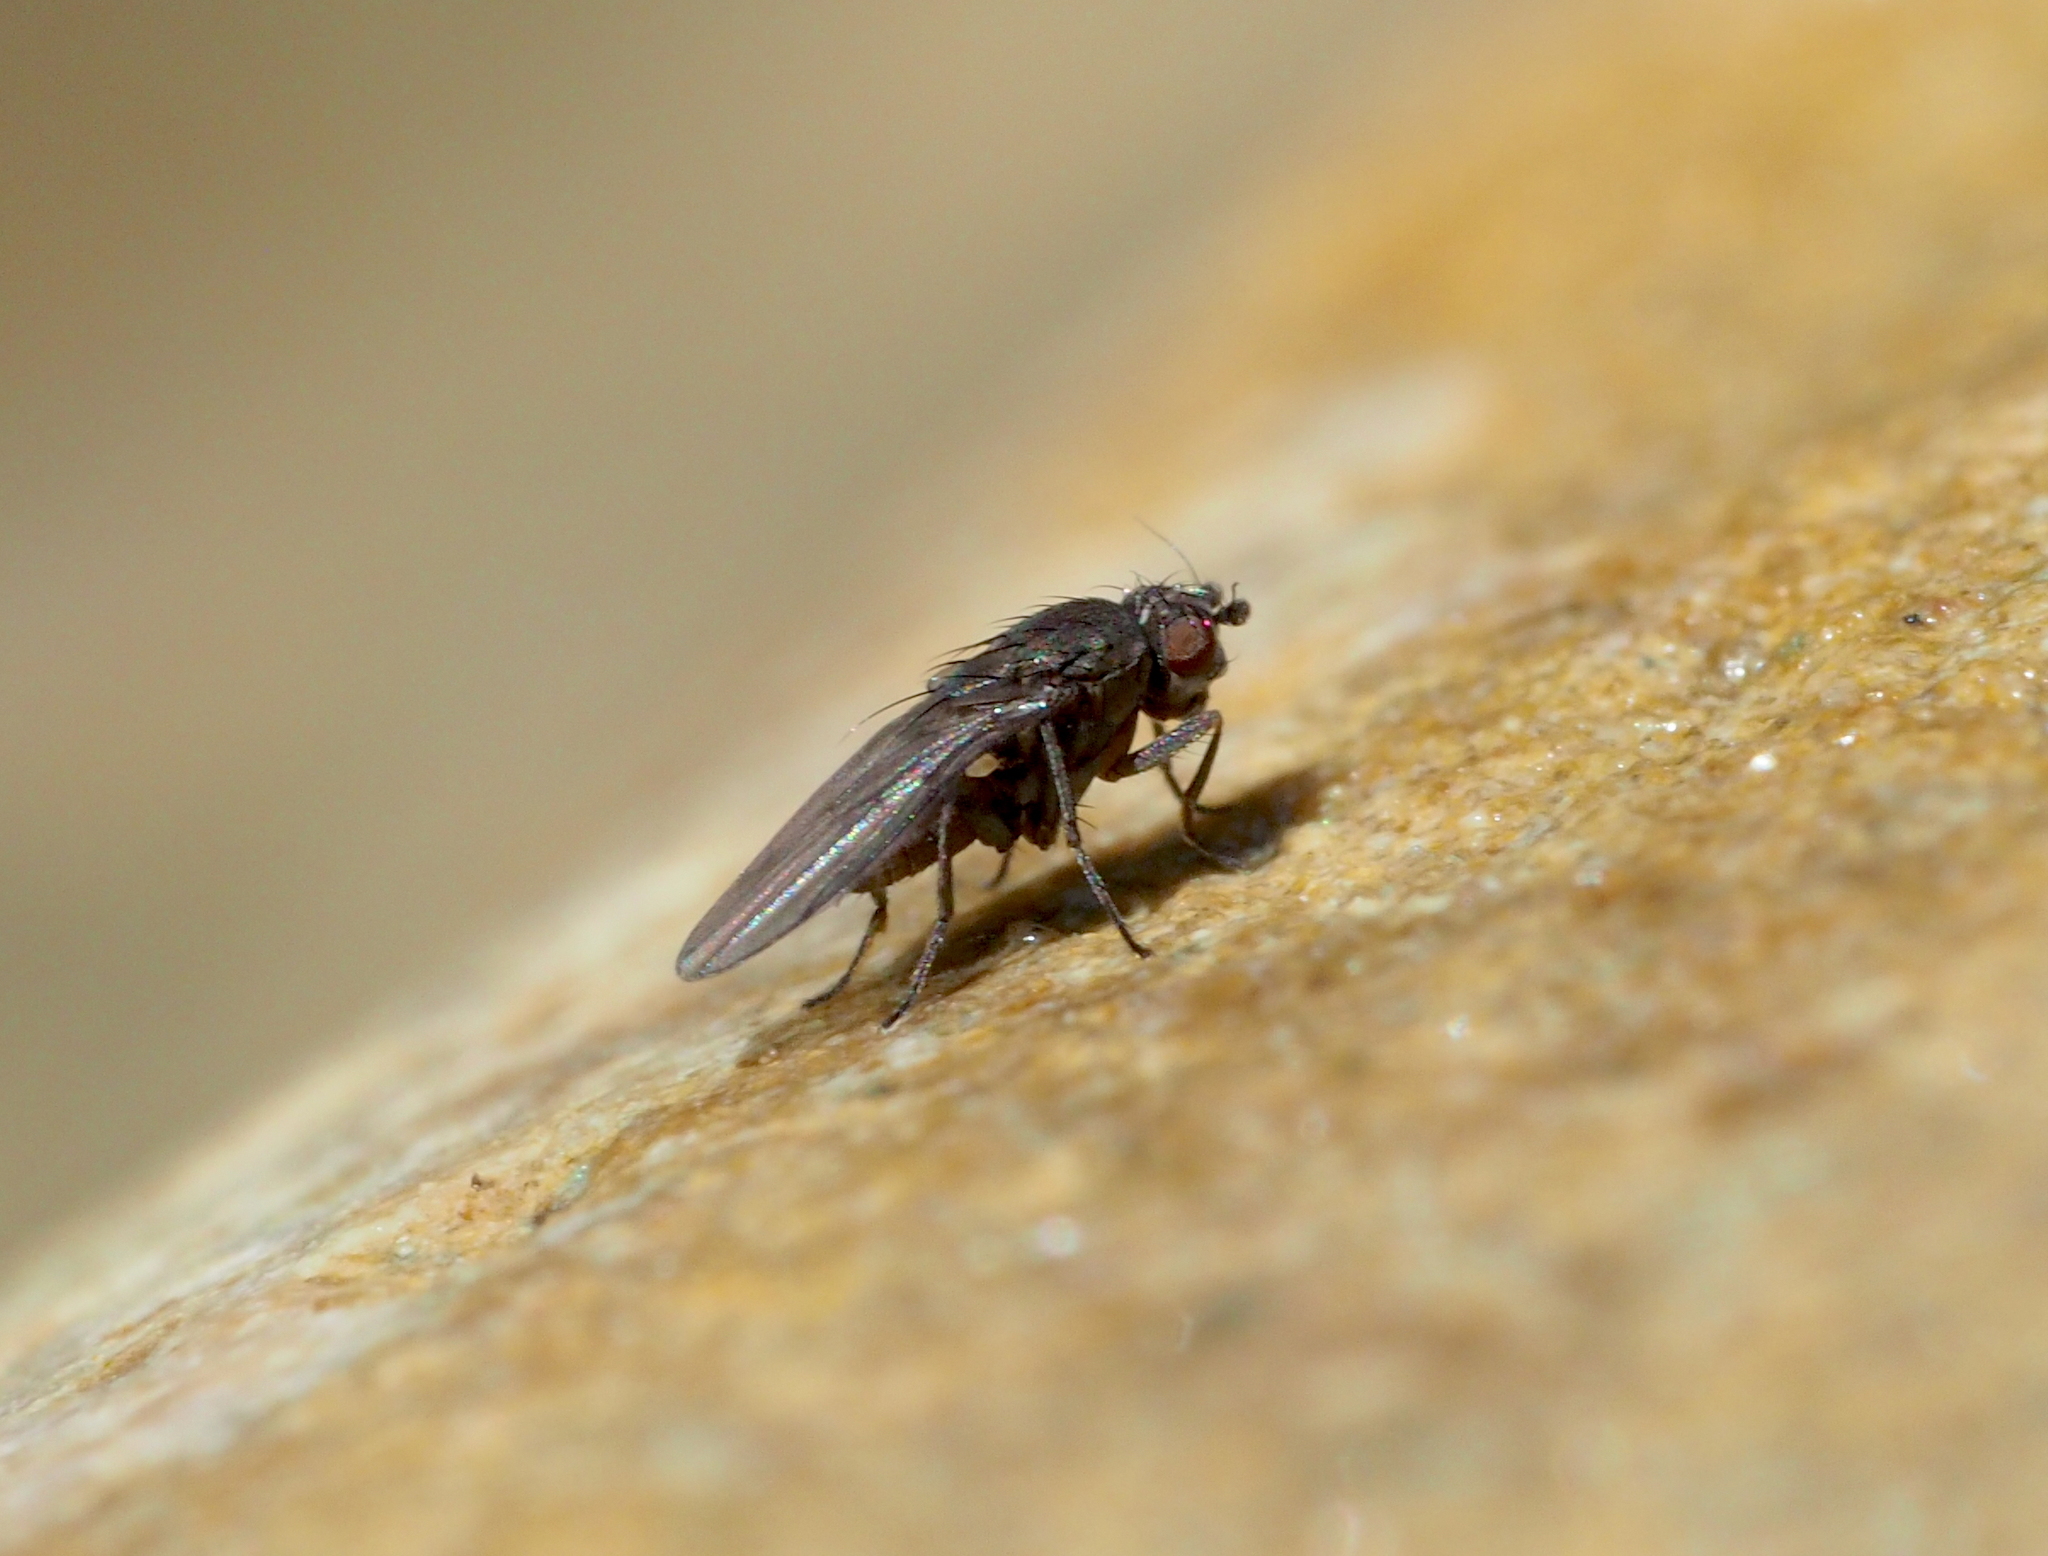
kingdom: Animalia
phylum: Arthropoda
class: Insecta
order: Diptera
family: Sphaeroceridae
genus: Opacifrons
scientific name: Opacifrons humida
